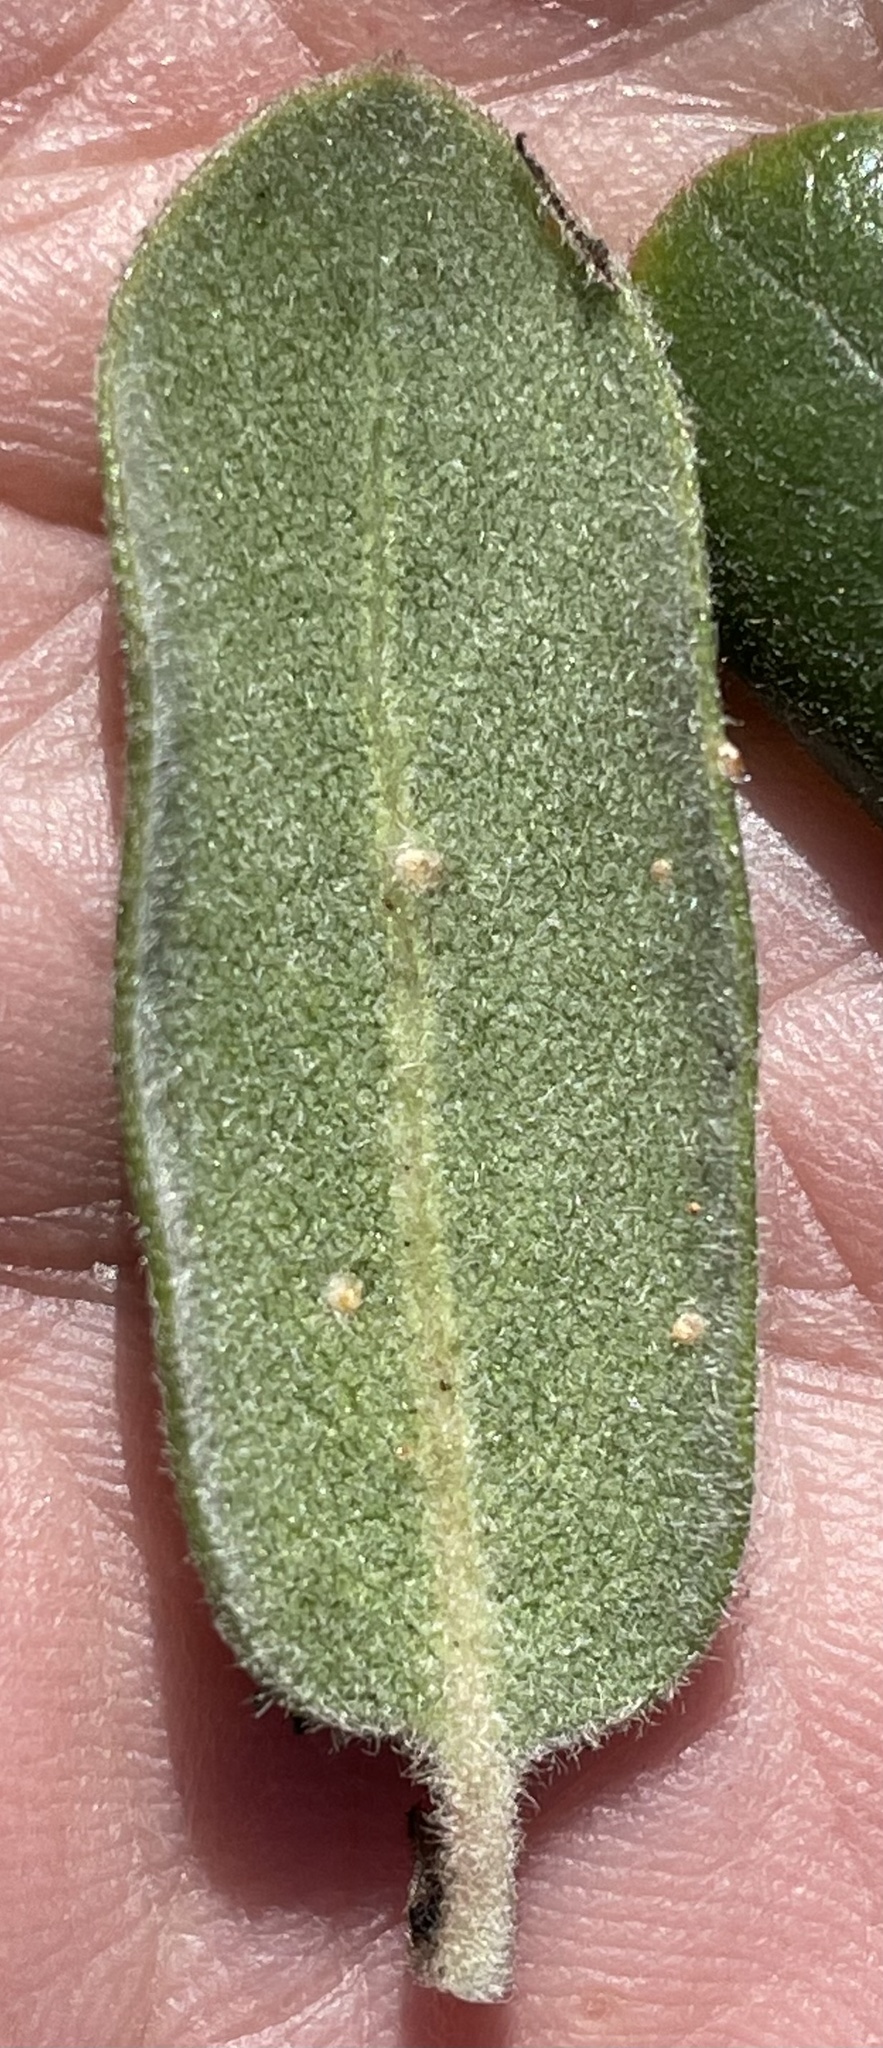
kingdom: Plantae
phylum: Tracheophyta
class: Magnoliopsida
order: Ericales
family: Ericaceae
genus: Arctostaphylos
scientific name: Arctostaphylos tomentosa
